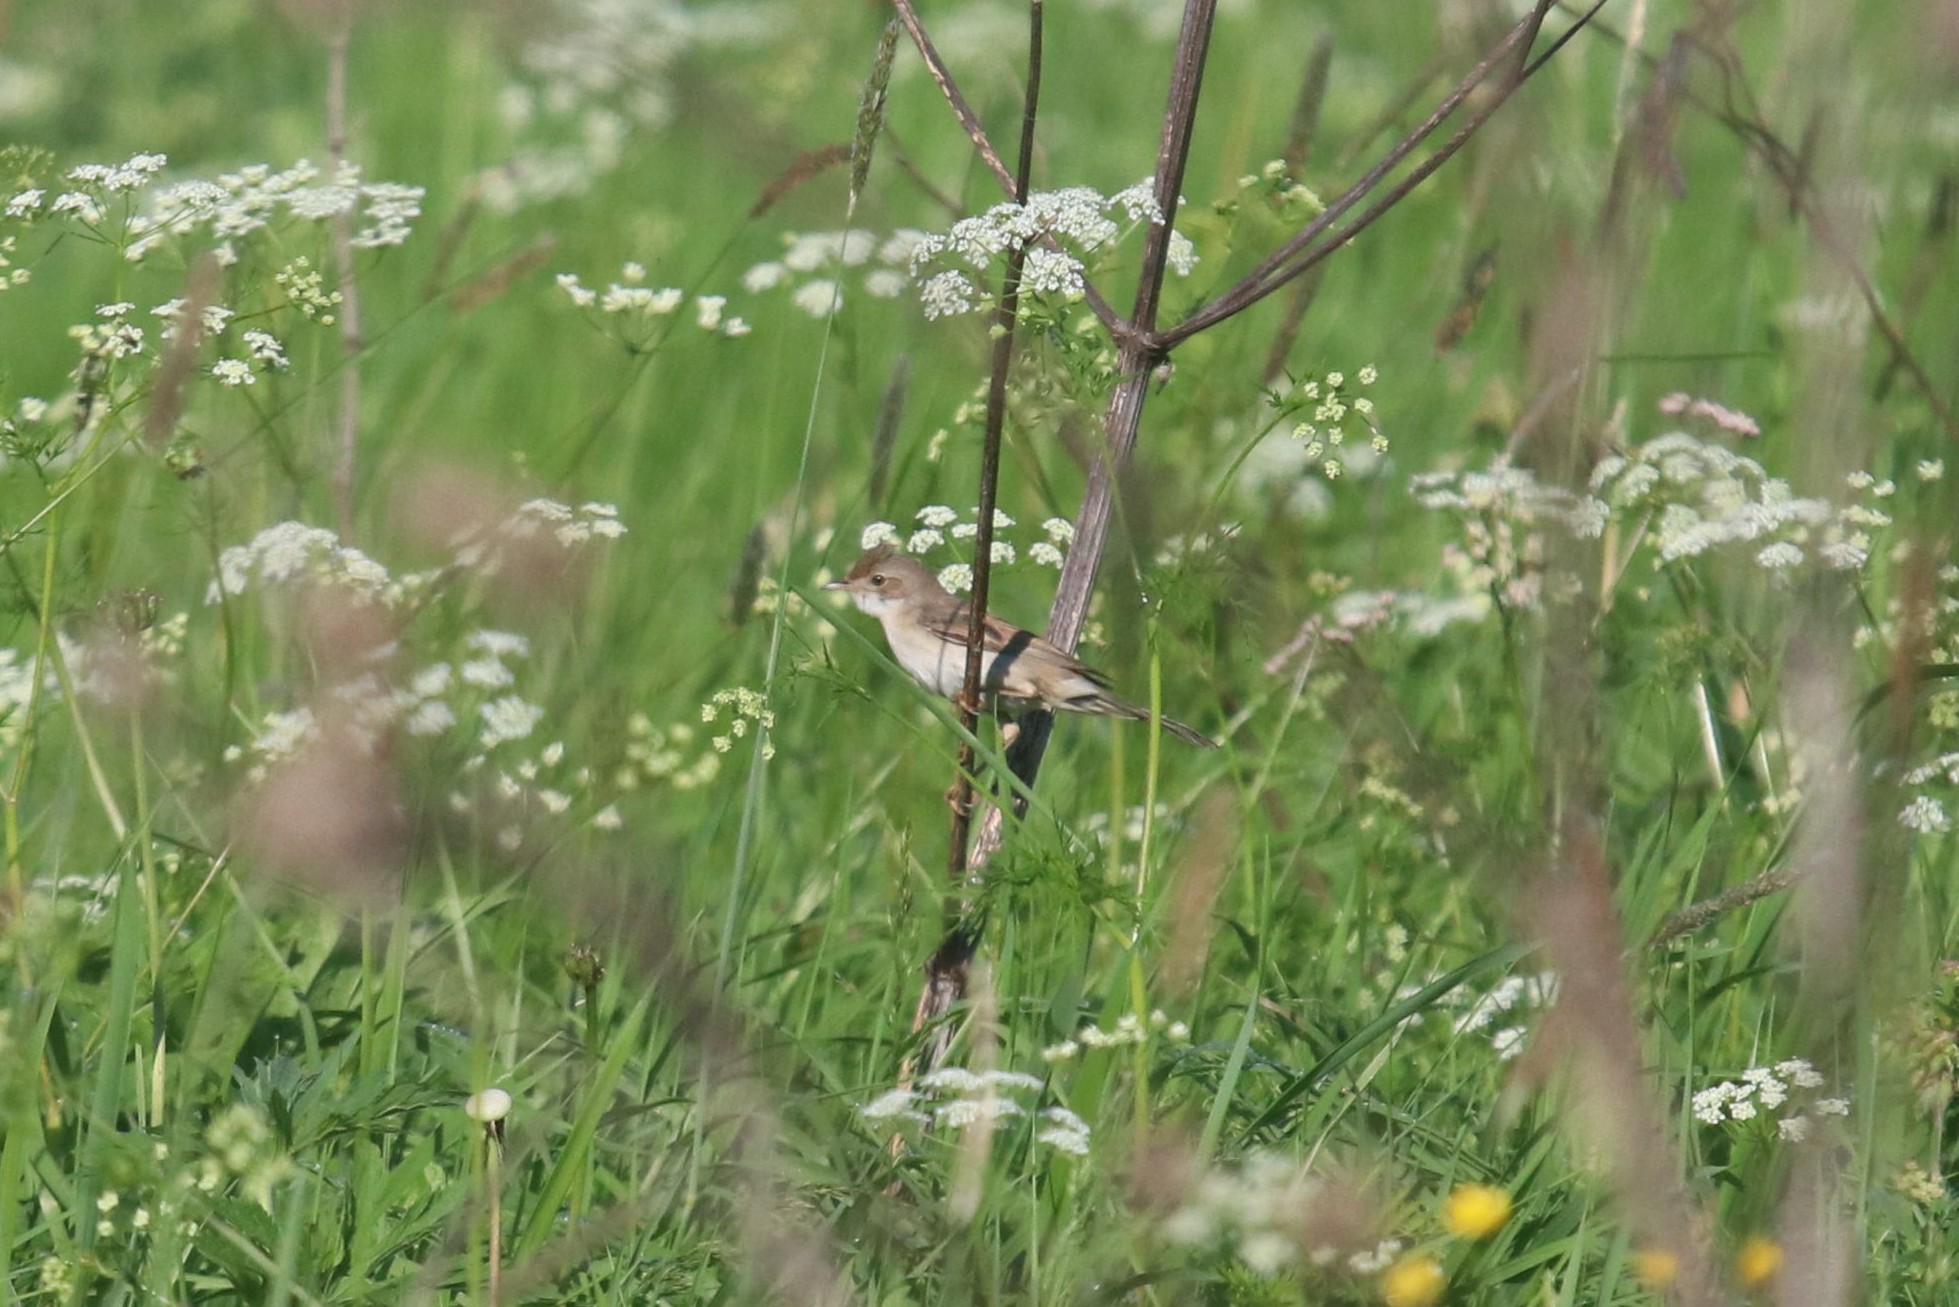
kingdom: Animalia
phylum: Chordata
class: Aves
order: Passeriformes
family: Acrocephalidae
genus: Iduna
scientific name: Iduna caligata
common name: Booted warbler
